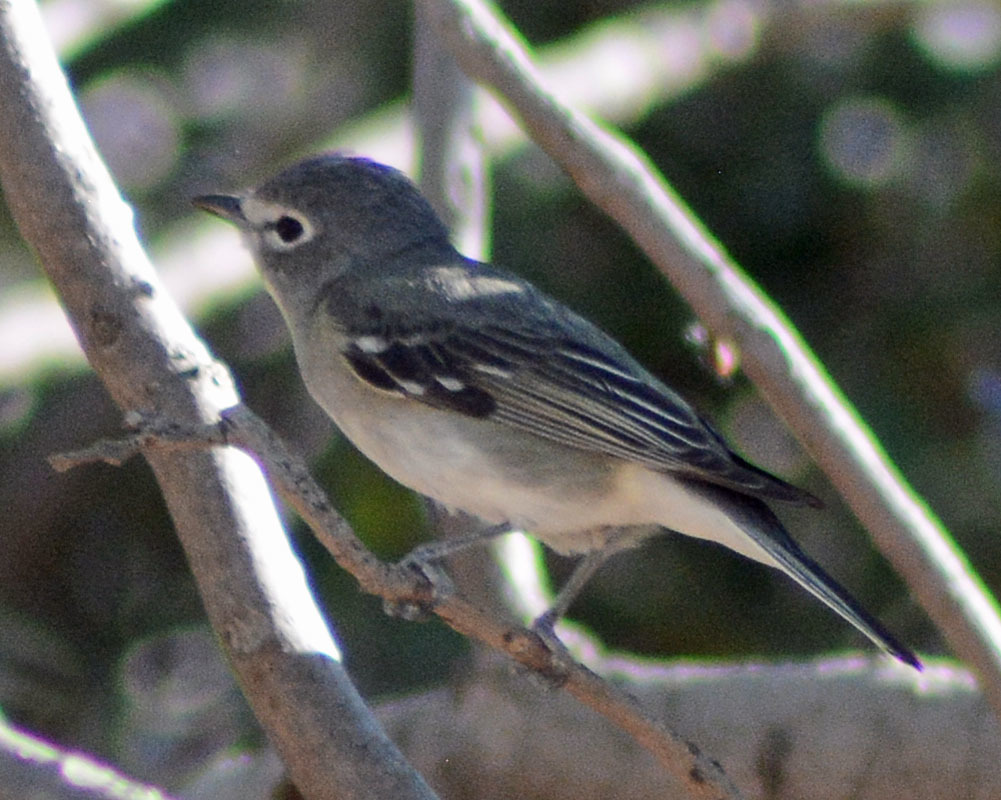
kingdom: Animalia
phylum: Chordata
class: Aves
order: Passeriformes
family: Vireonidae
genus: Vireo
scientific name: Vireo plumbeus
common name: Plumbeous vireo
